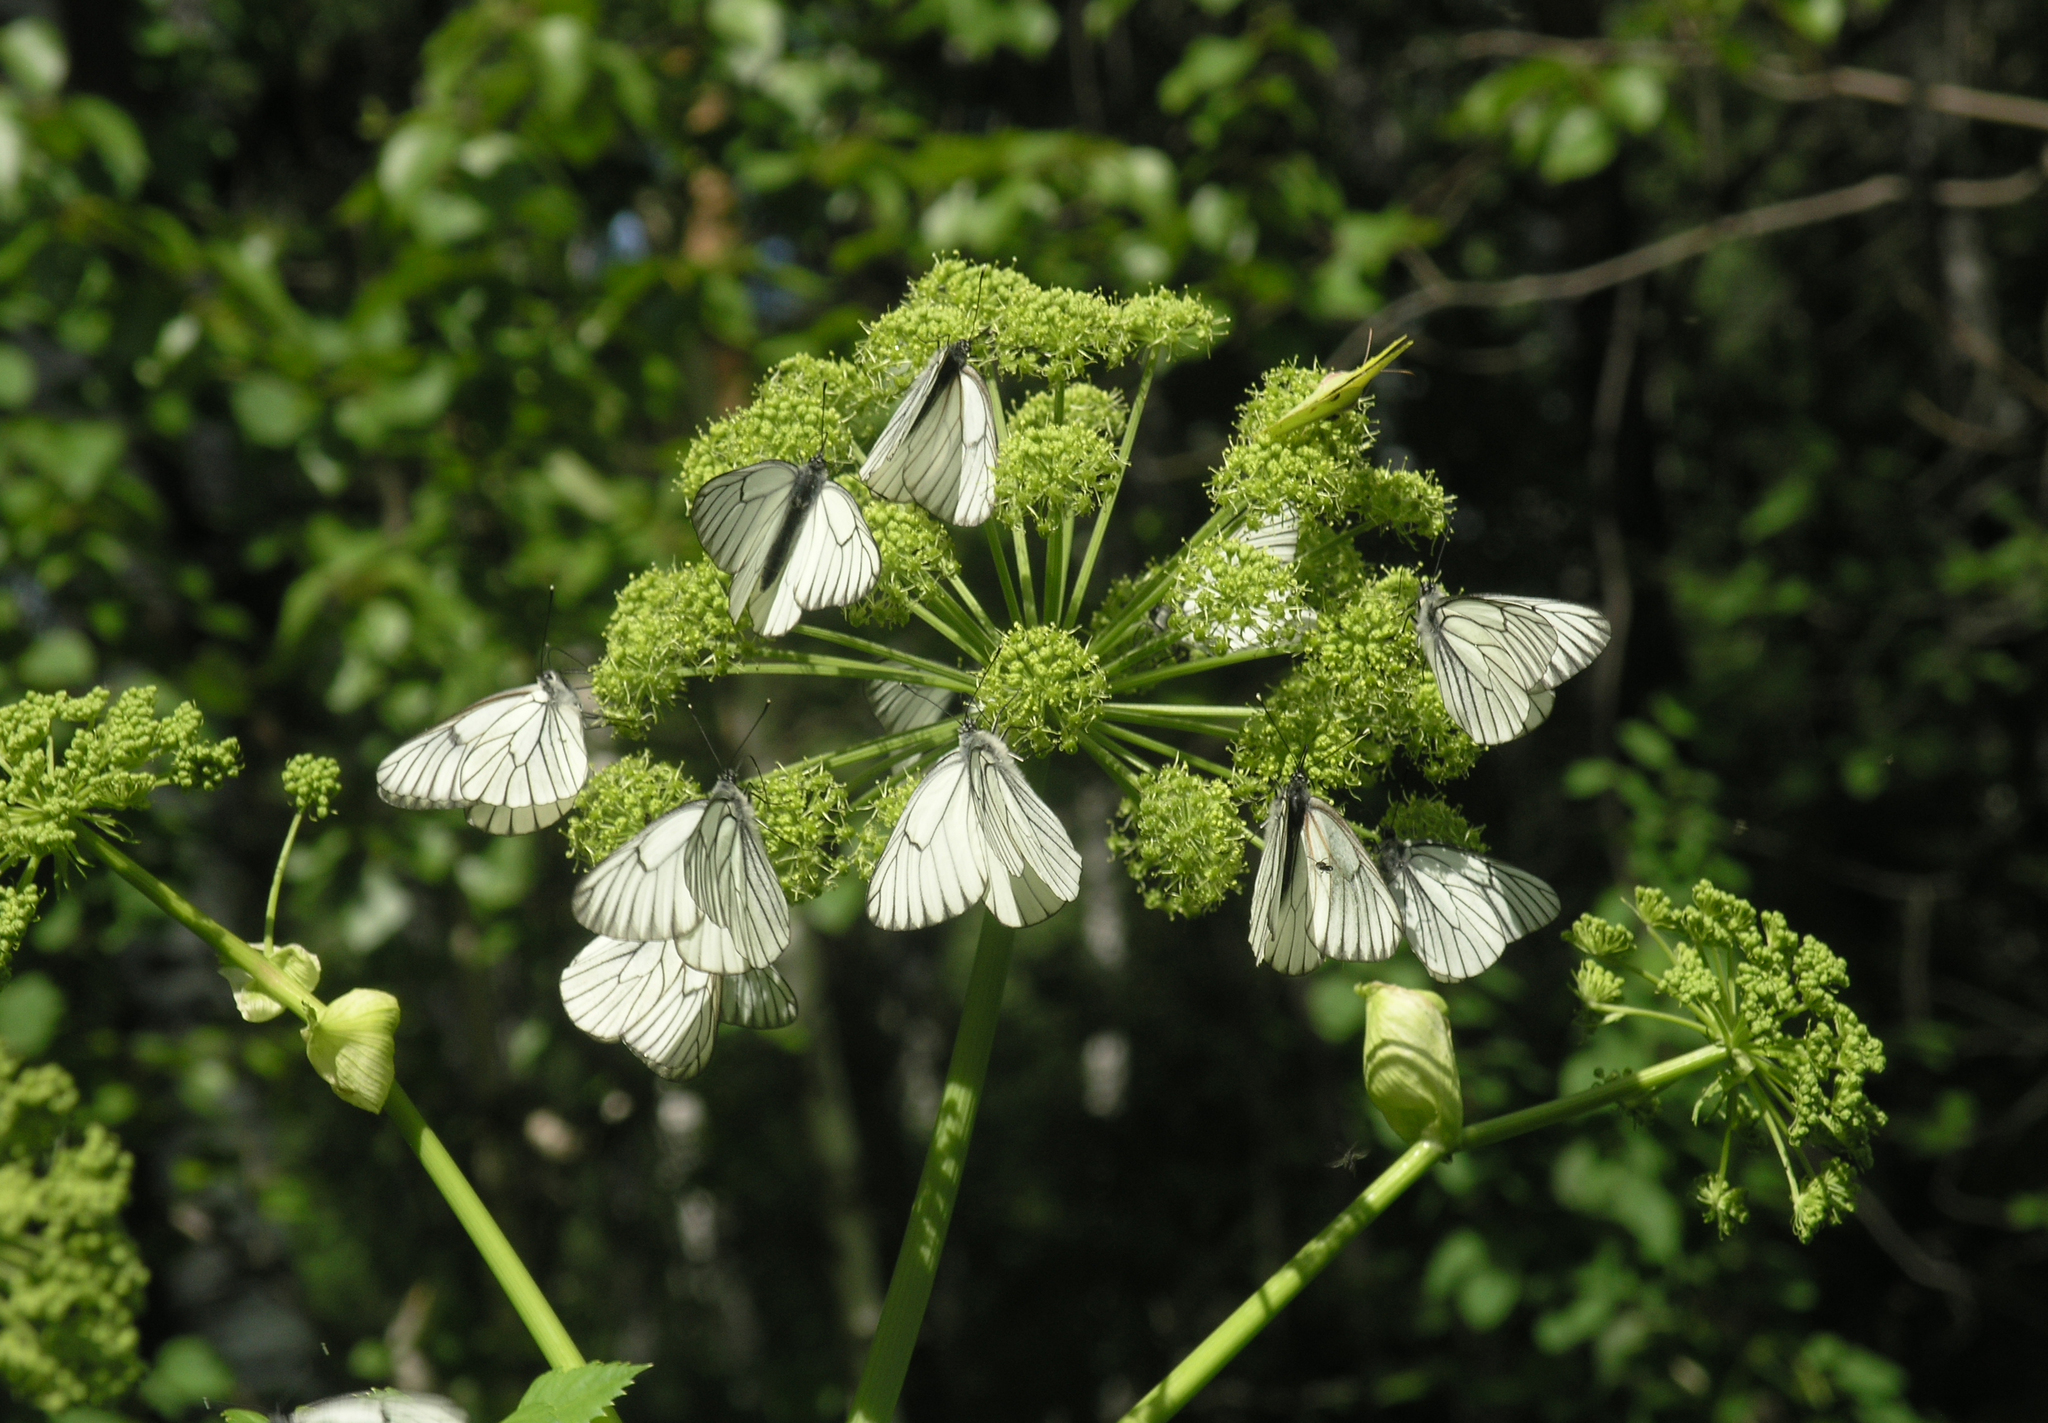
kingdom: Animalia
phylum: Arthropoda
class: Insecta
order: Lepidoptera
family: Pieridae
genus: Aporia
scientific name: Aporia crataegi
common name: Black-veined white
